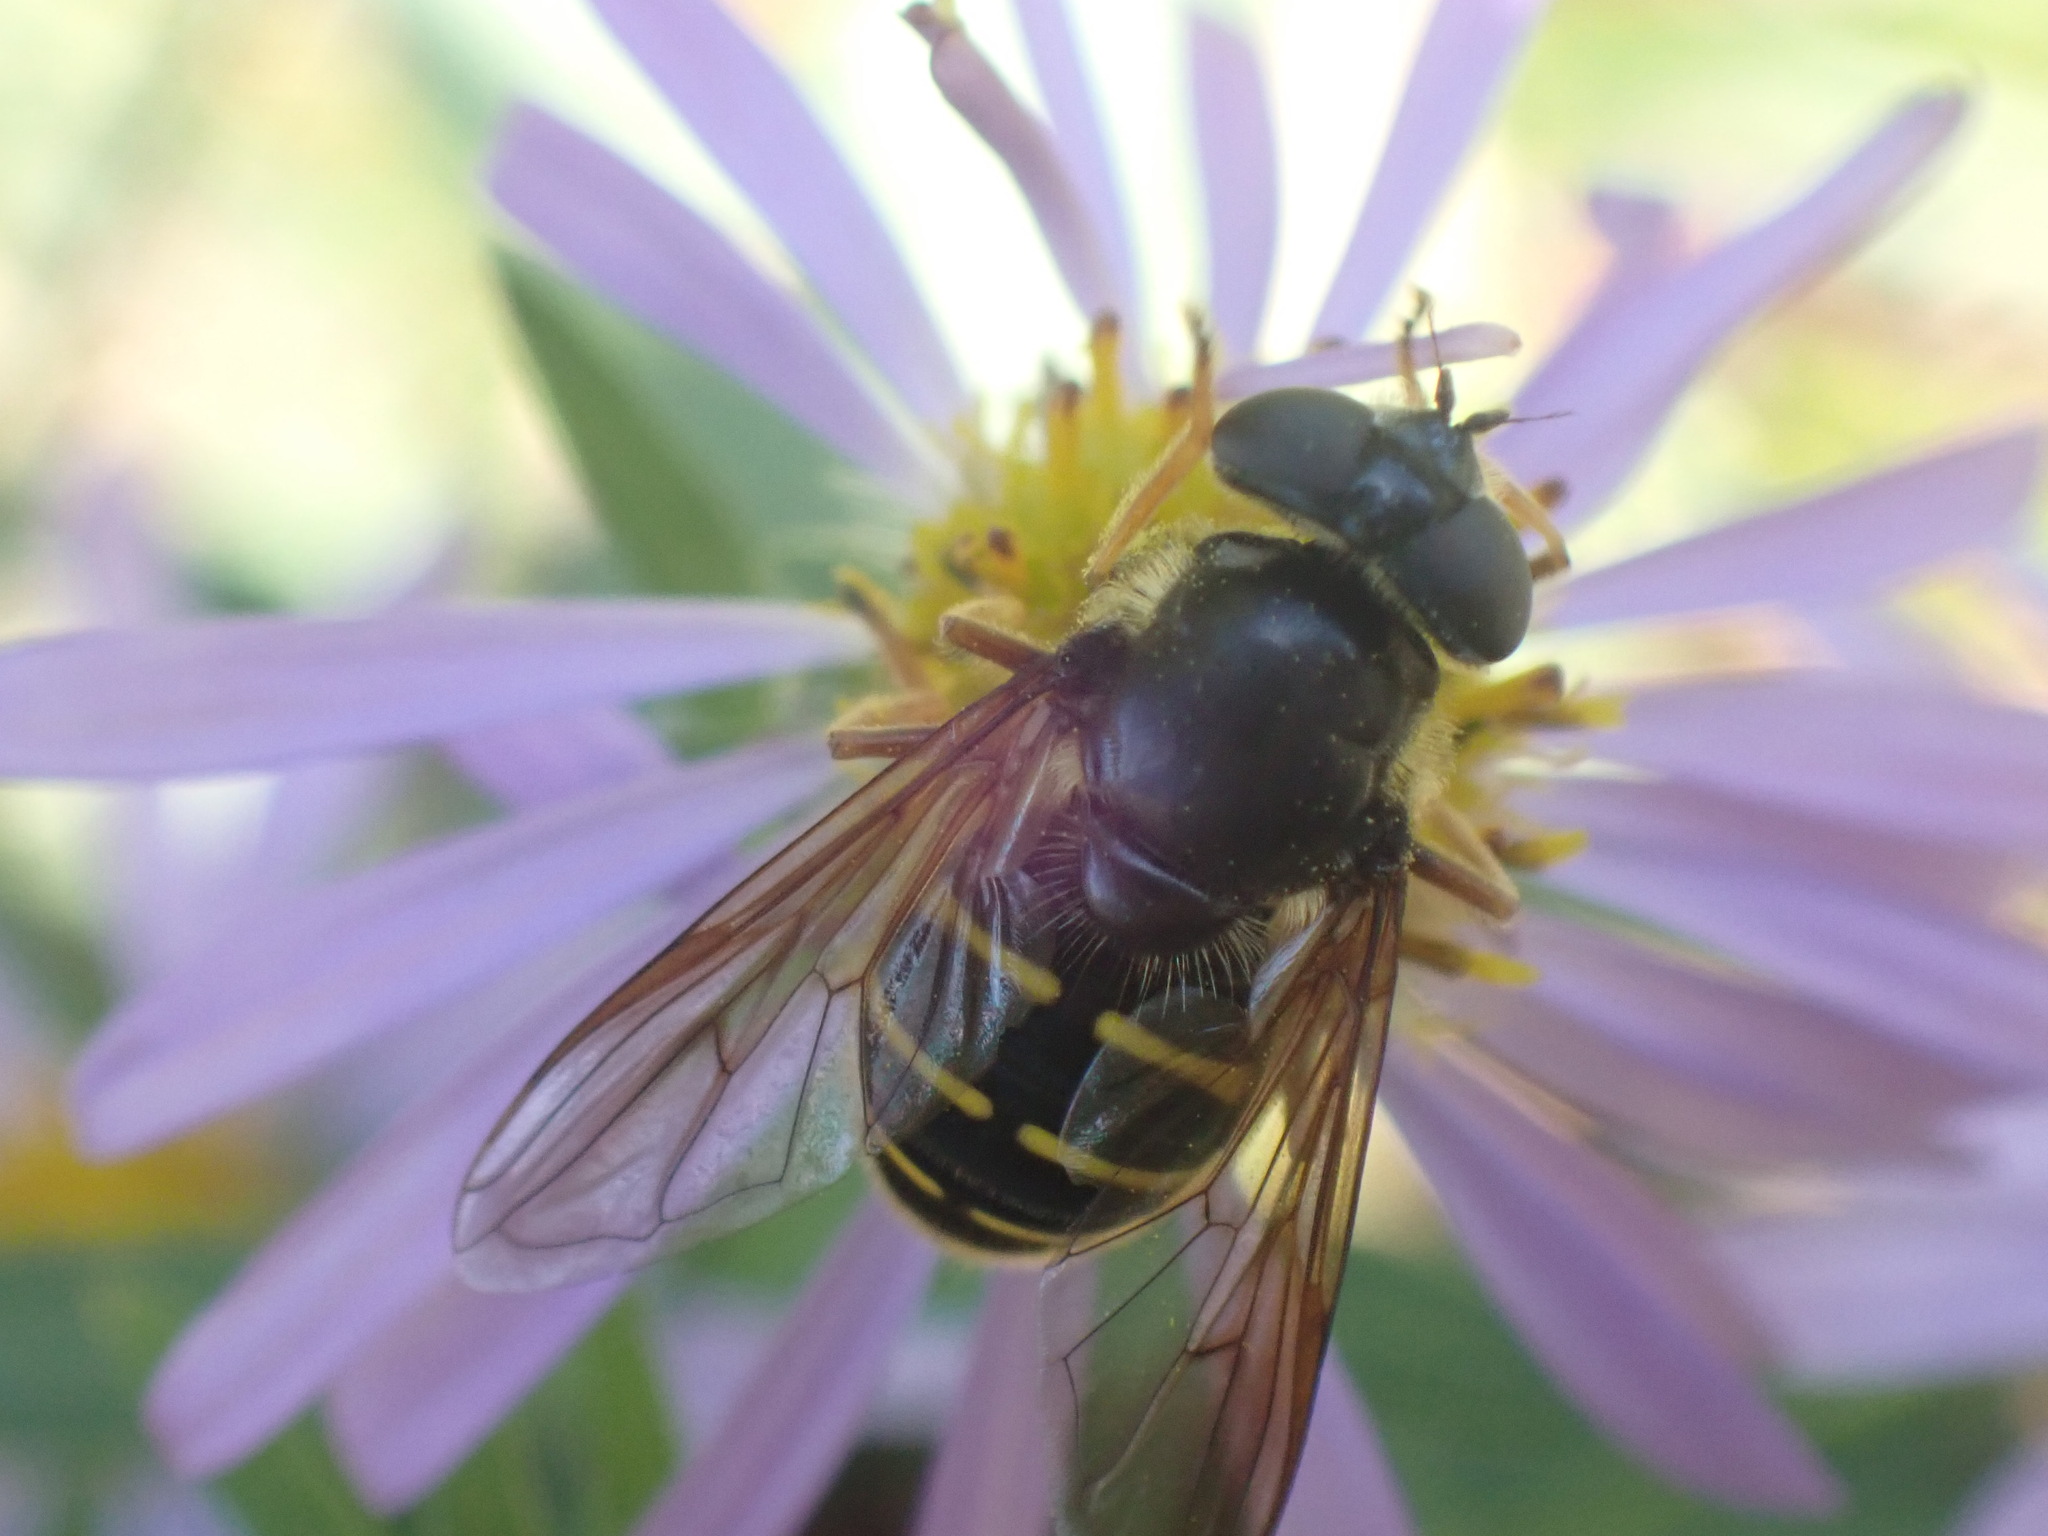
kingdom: Animalia
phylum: Arthropoda
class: Insecta
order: Diptera
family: Syrphidae
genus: Sericomyia
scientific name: Sericomyia chalcopyga
